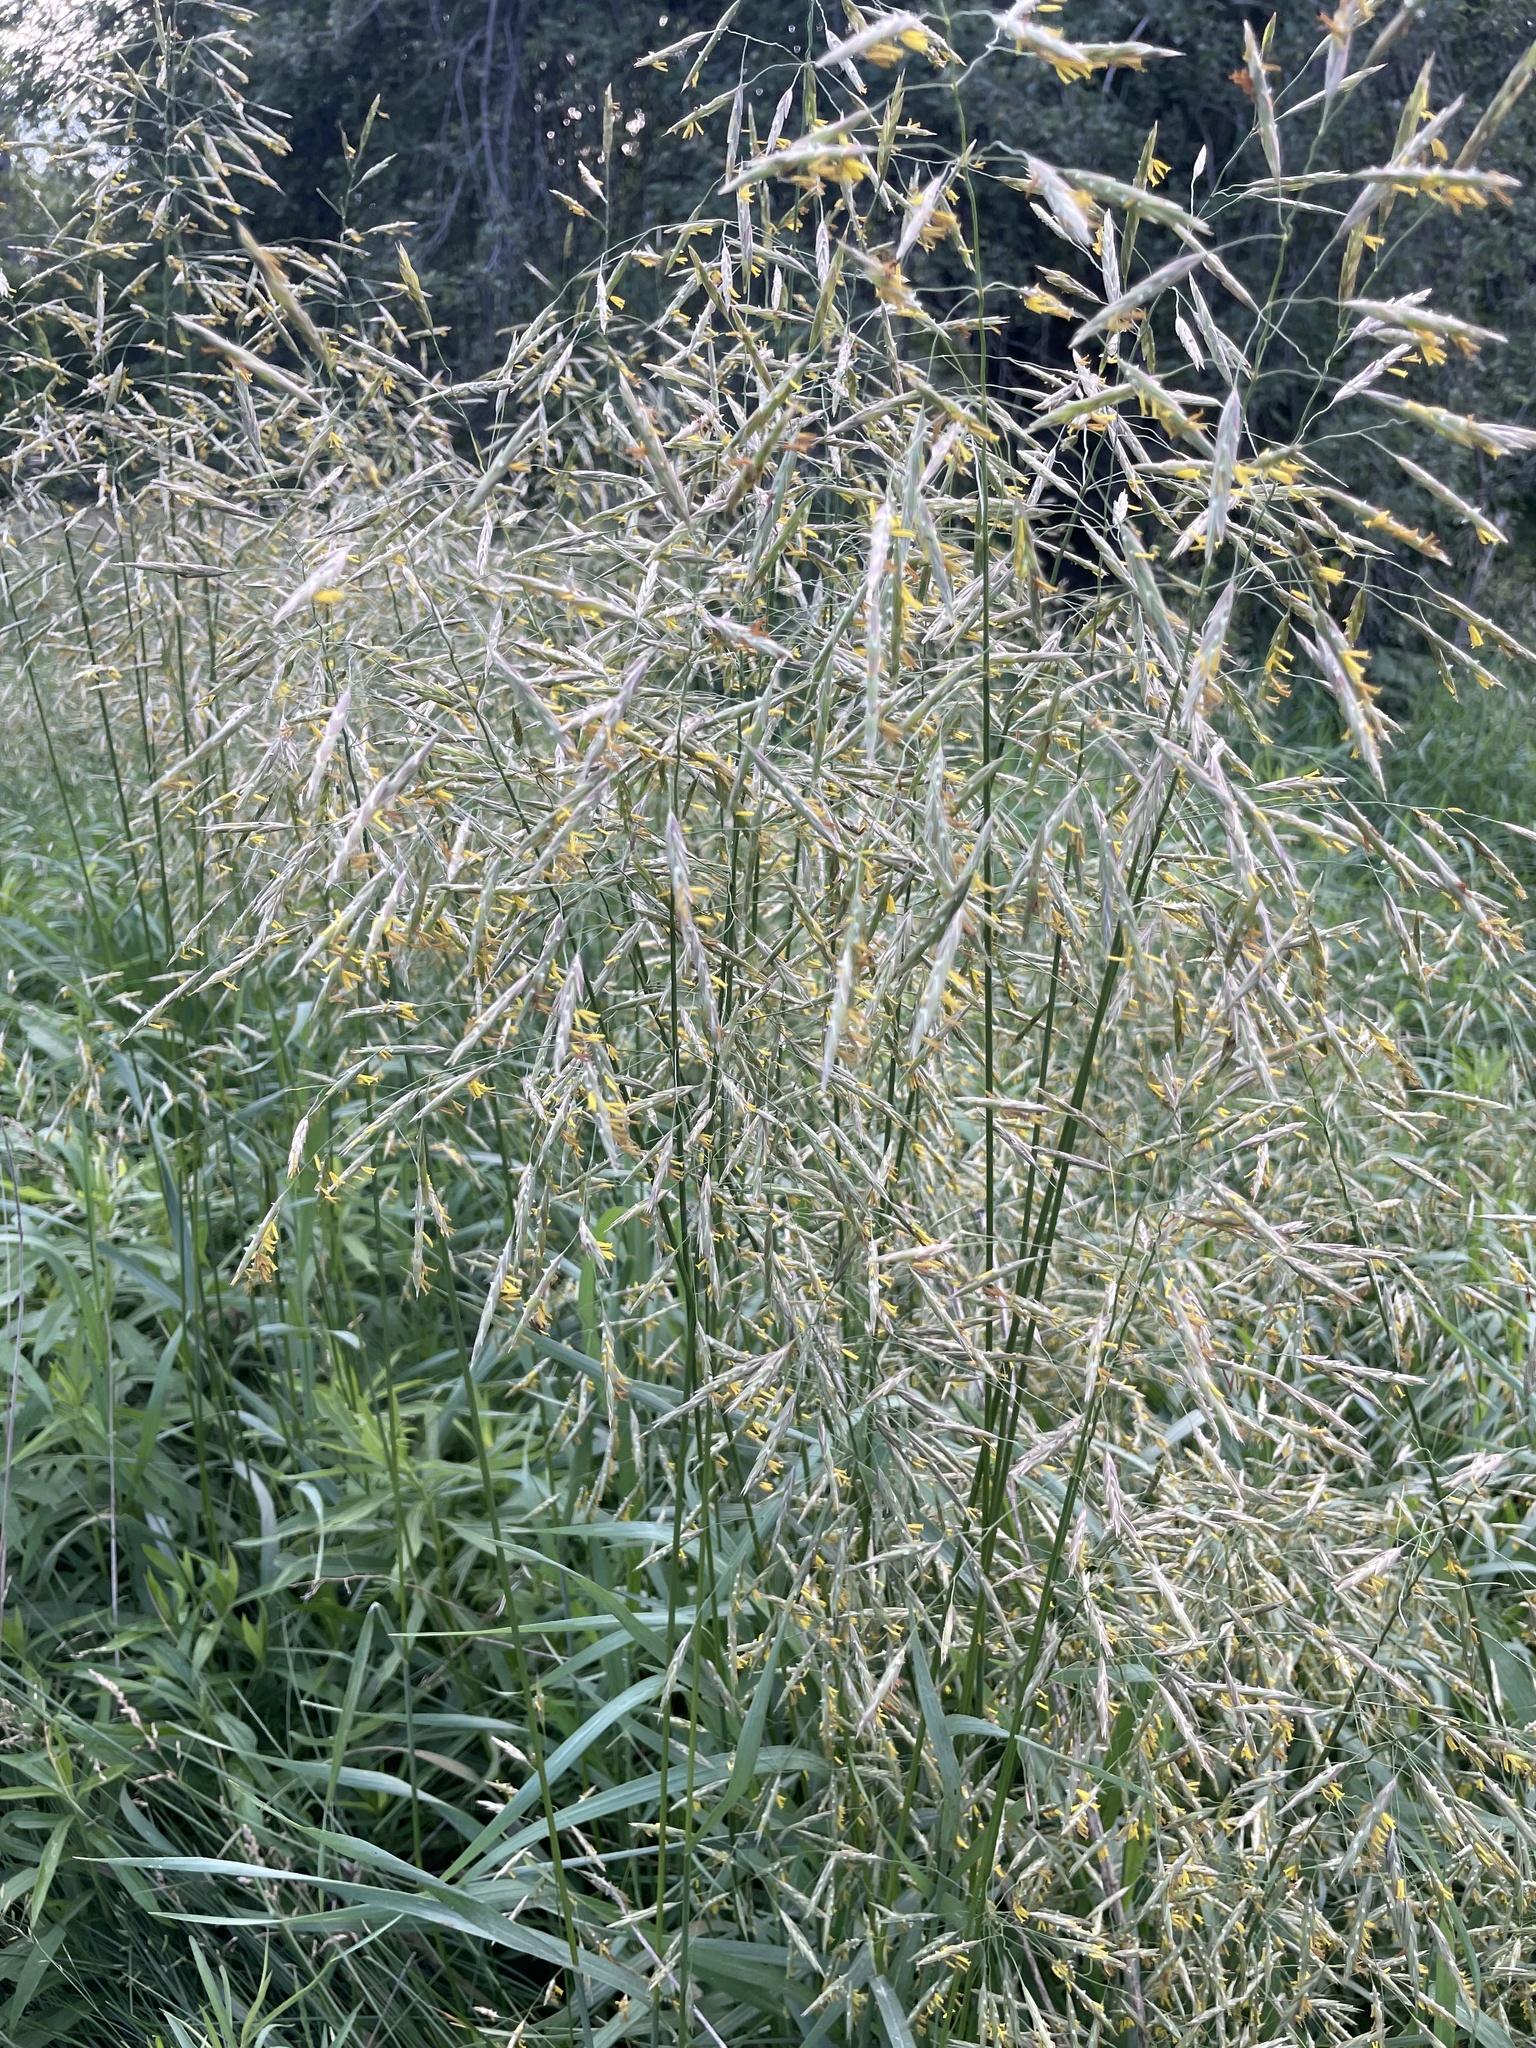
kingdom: Plantae
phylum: Tracheophyta
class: Liliopsida
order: Poales
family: Poaceae
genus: Bromus
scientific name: Bromus inermis
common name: Smooth brome
